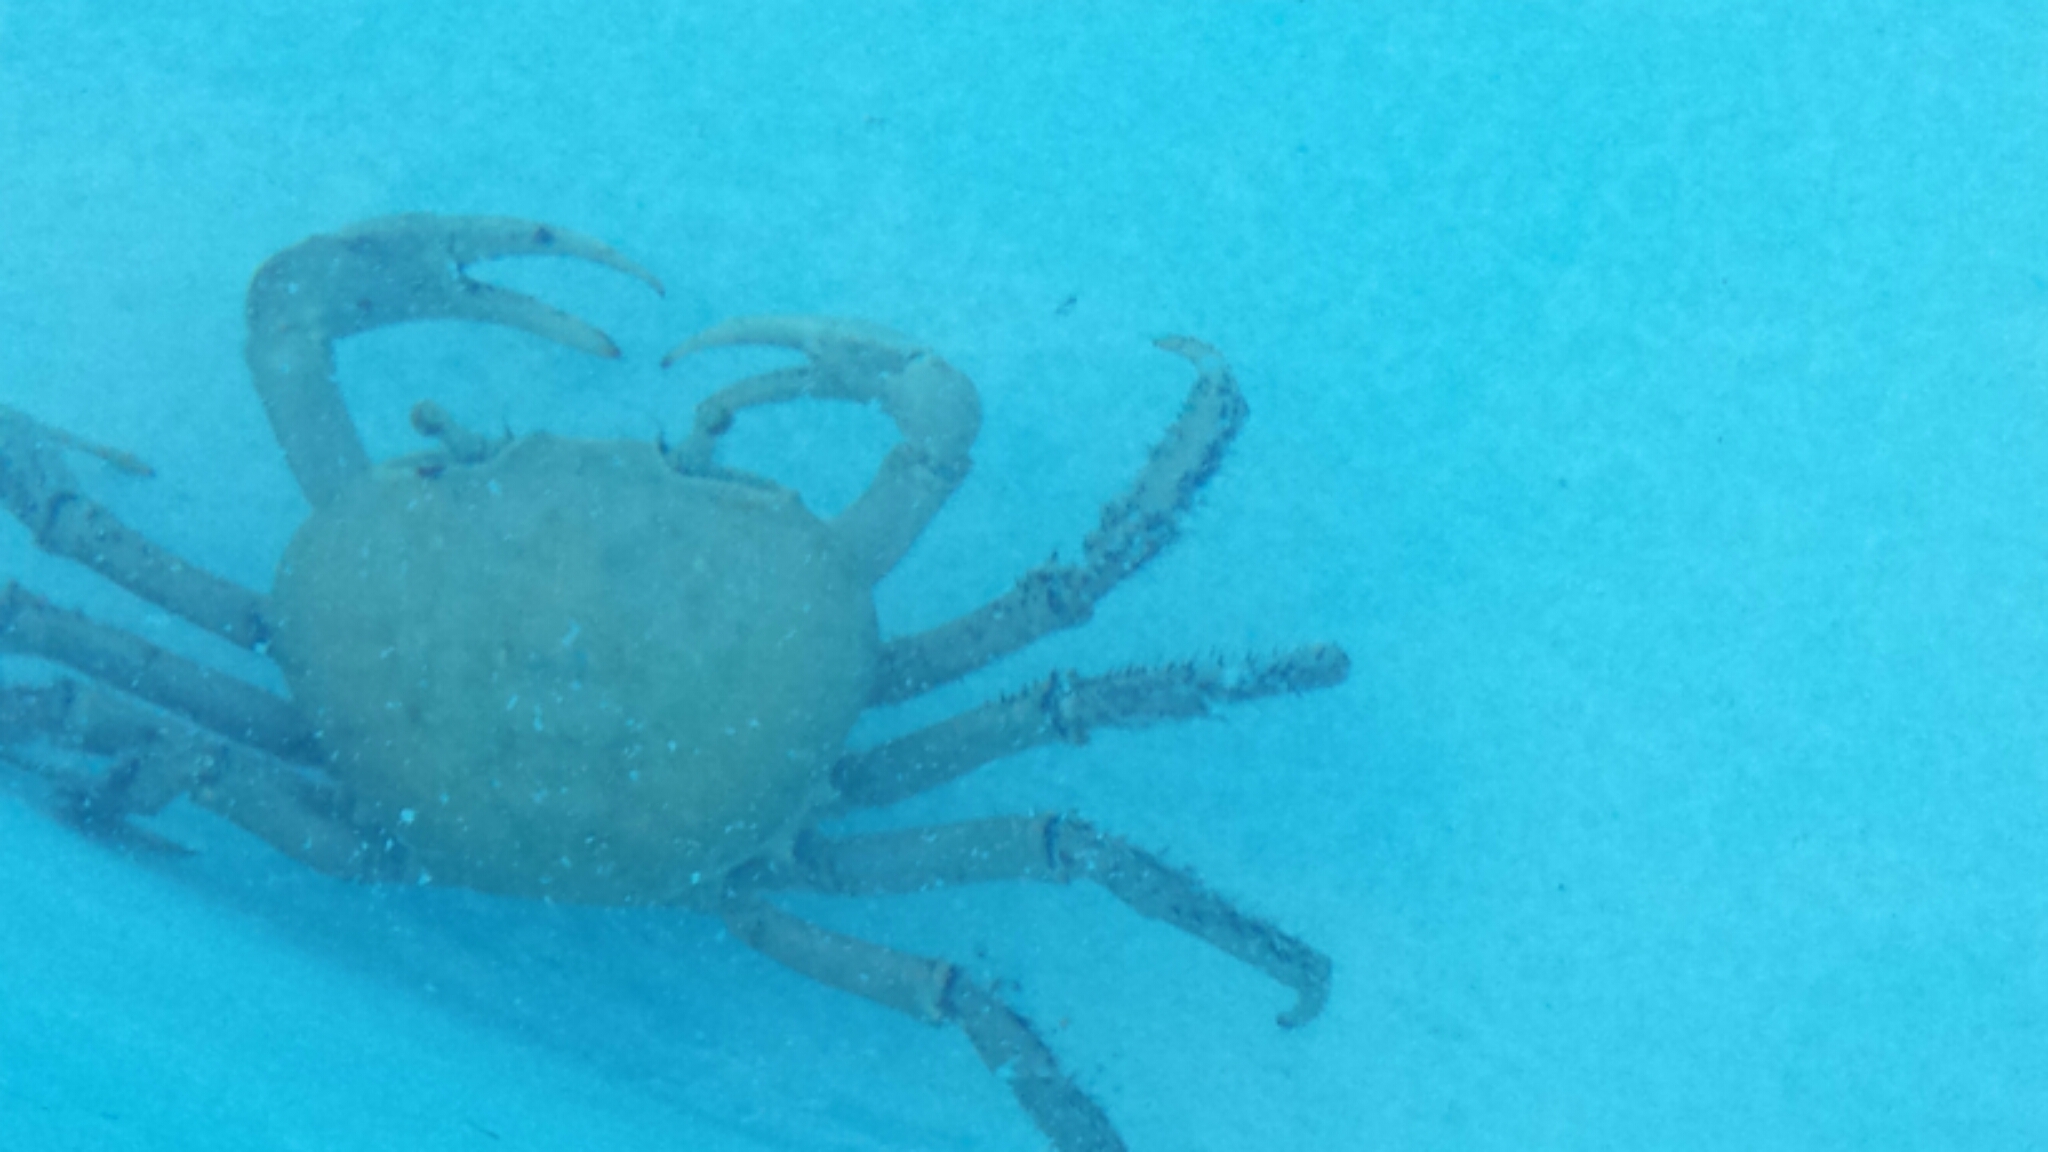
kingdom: Animalia
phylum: Arthropoda
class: Malacostraca
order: Decapoda
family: Gecarcinidae
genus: Cardisoma
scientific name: Cardisoma guanhumi
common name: Great land crab
